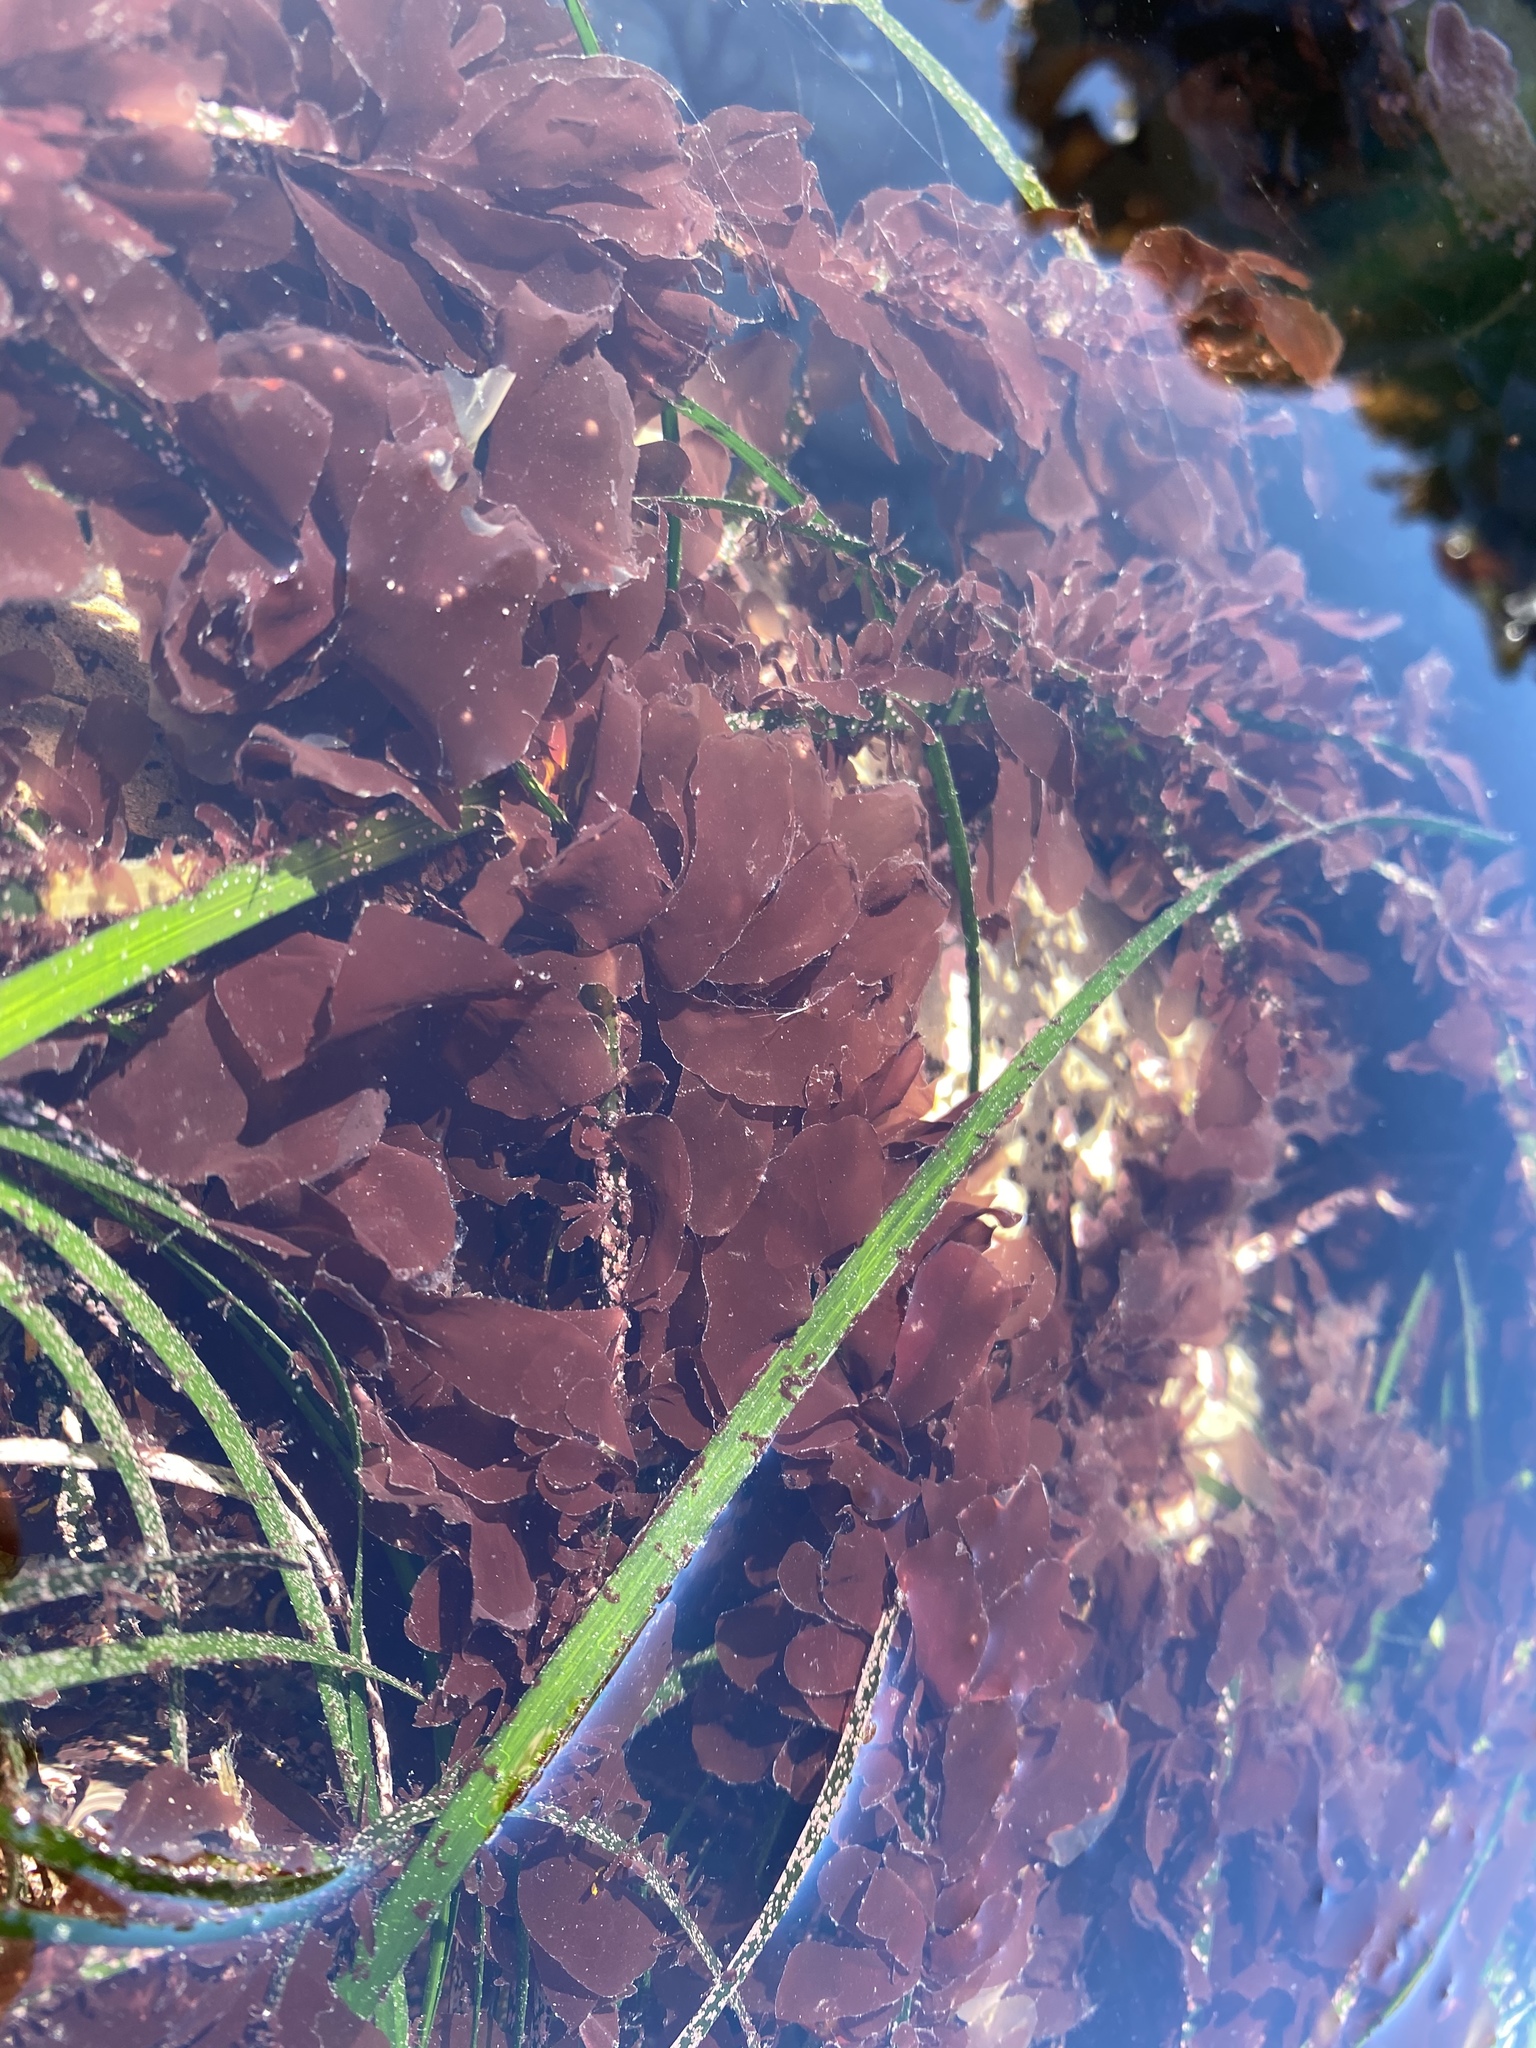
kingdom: Plantae
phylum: Rhodophyta
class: Compsopogonophyceae
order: Erythropeltidales
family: Erythrotrichiaceae
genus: Smithora
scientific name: Smithora naiadum
